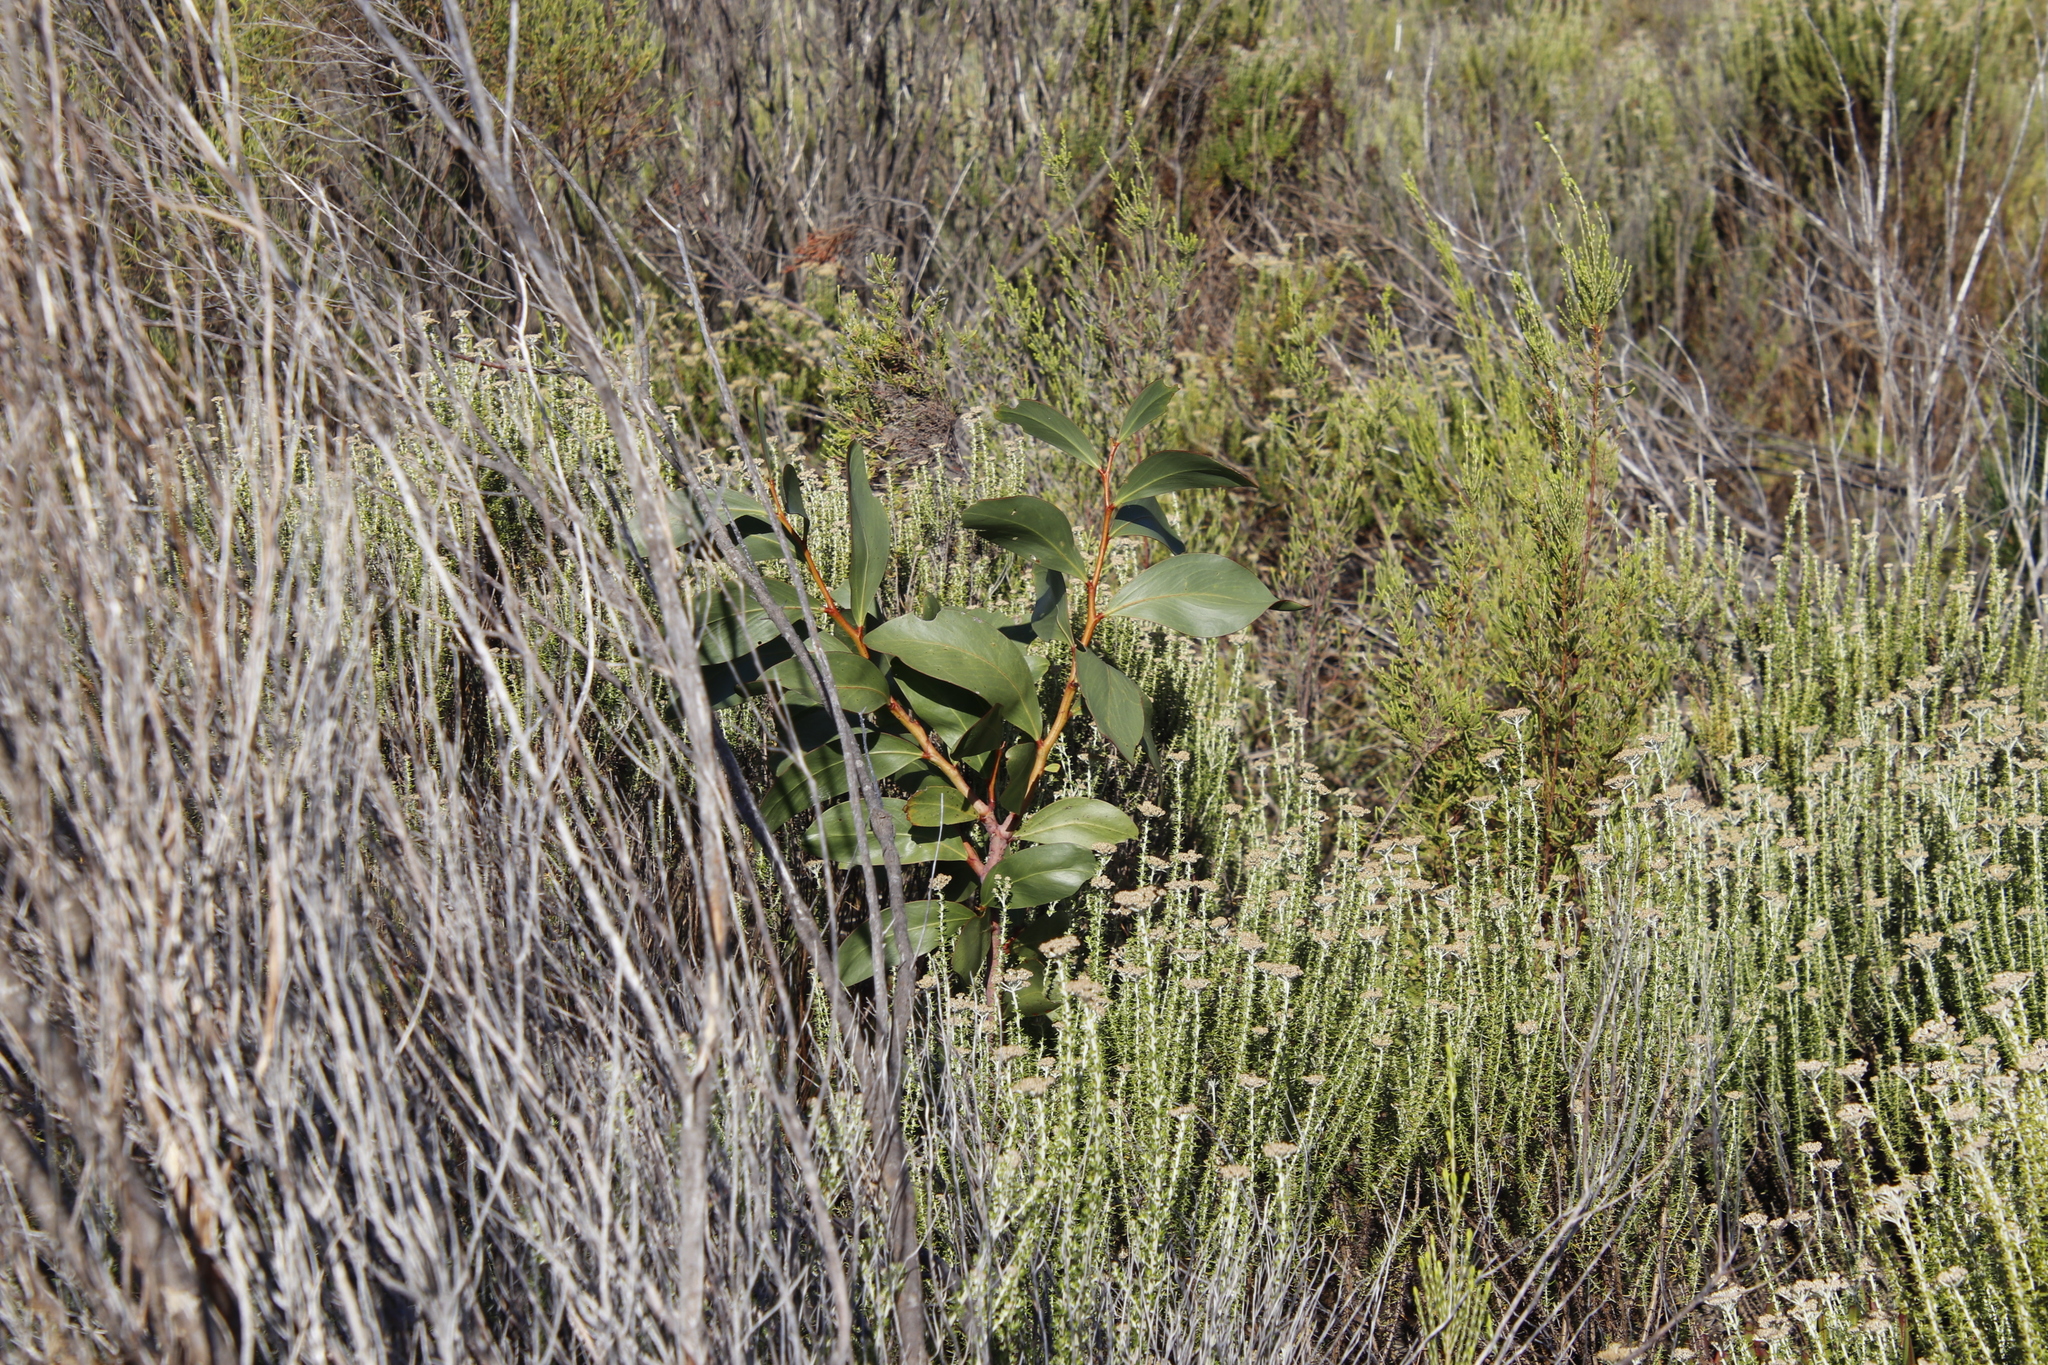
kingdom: Plantae
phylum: Tracheophyta
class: Magnoliopsida
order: Fabales
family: Fabaceae
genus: Acacia
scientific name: Acacia pycnantha
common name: Golden wattle
